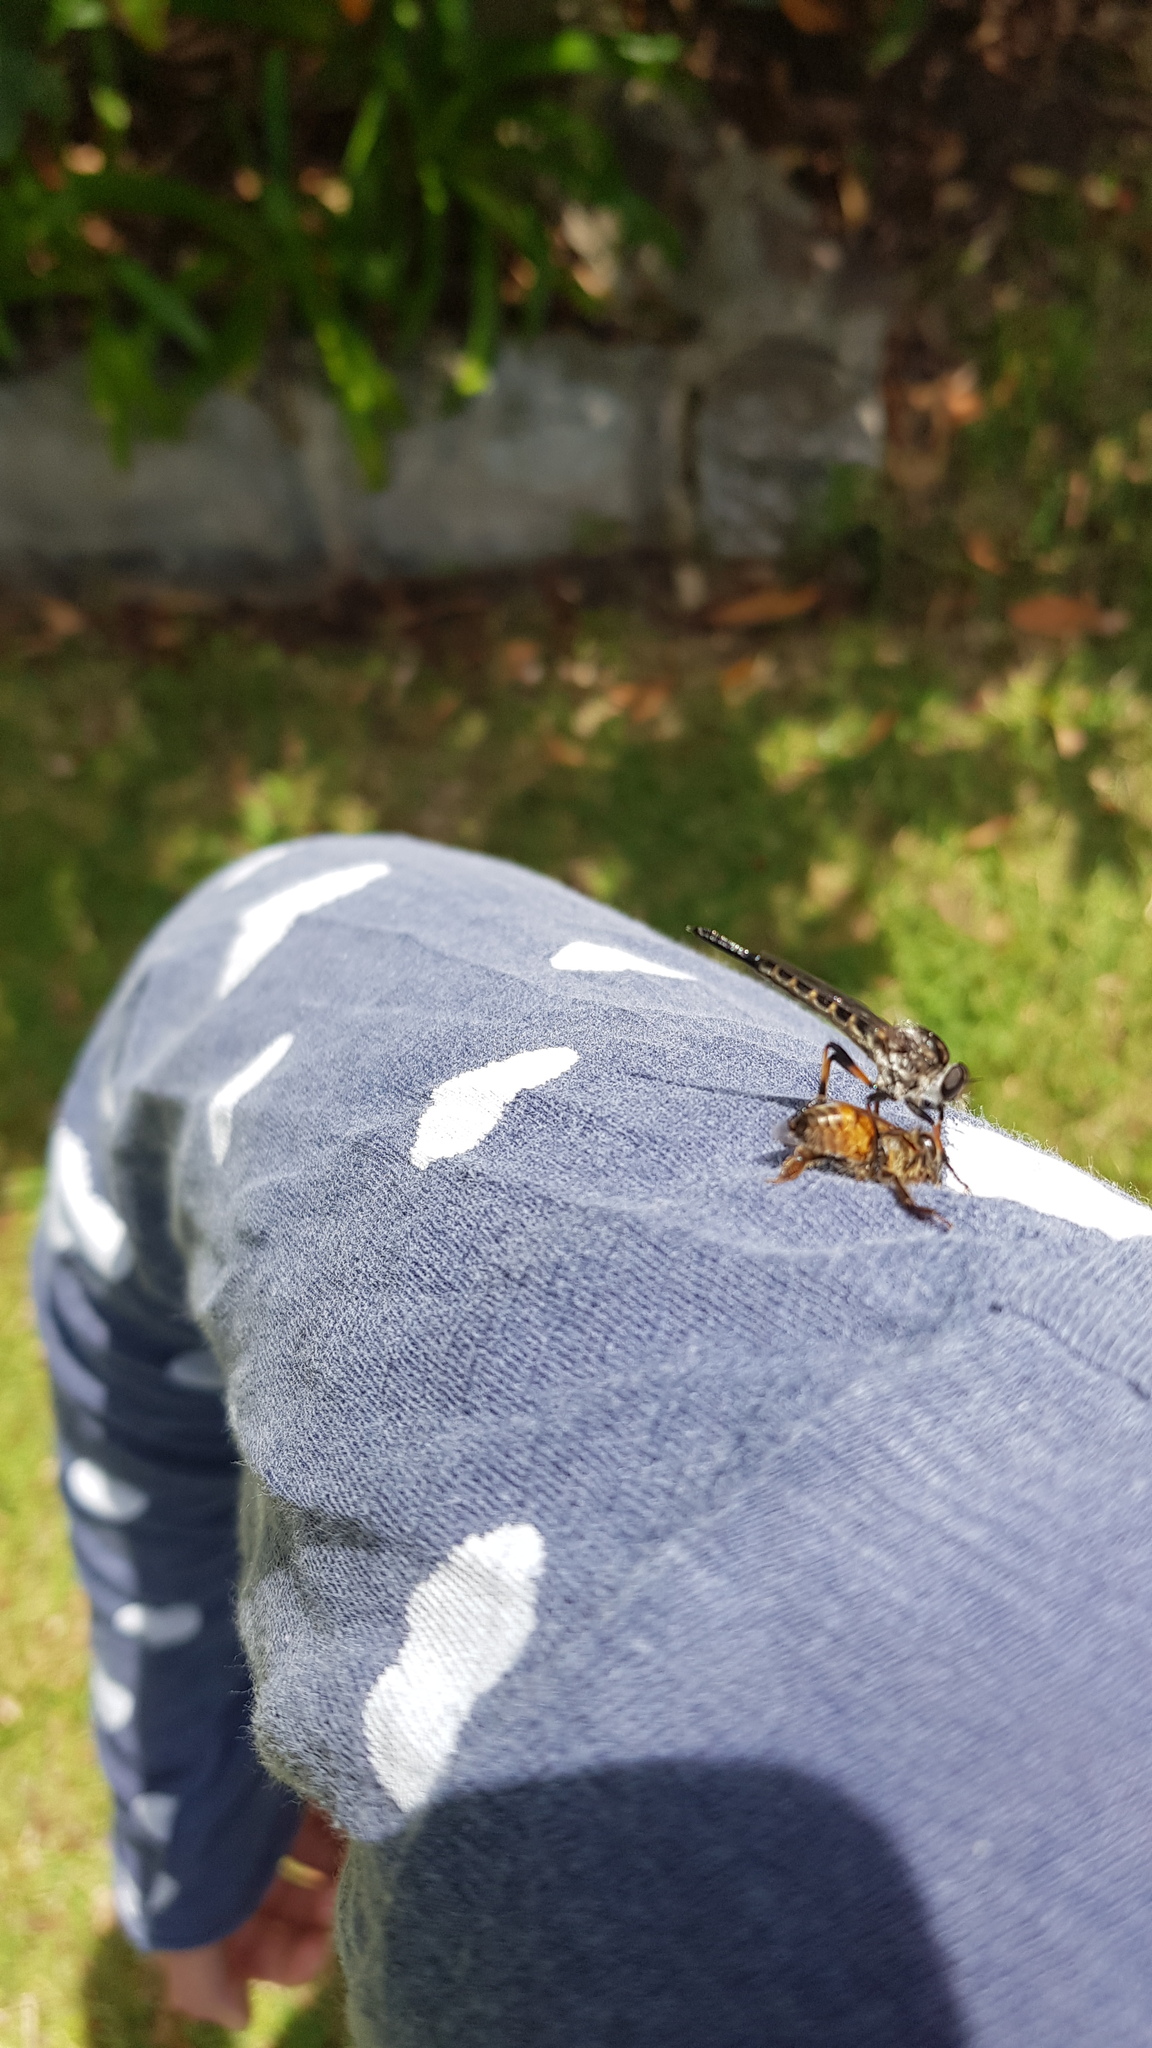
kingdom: Animalia
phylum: Arthropoda
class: Insecta
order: Hymenoptera
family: Apidae
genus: Apis
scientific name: Apis mellifera
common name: Honey bee
